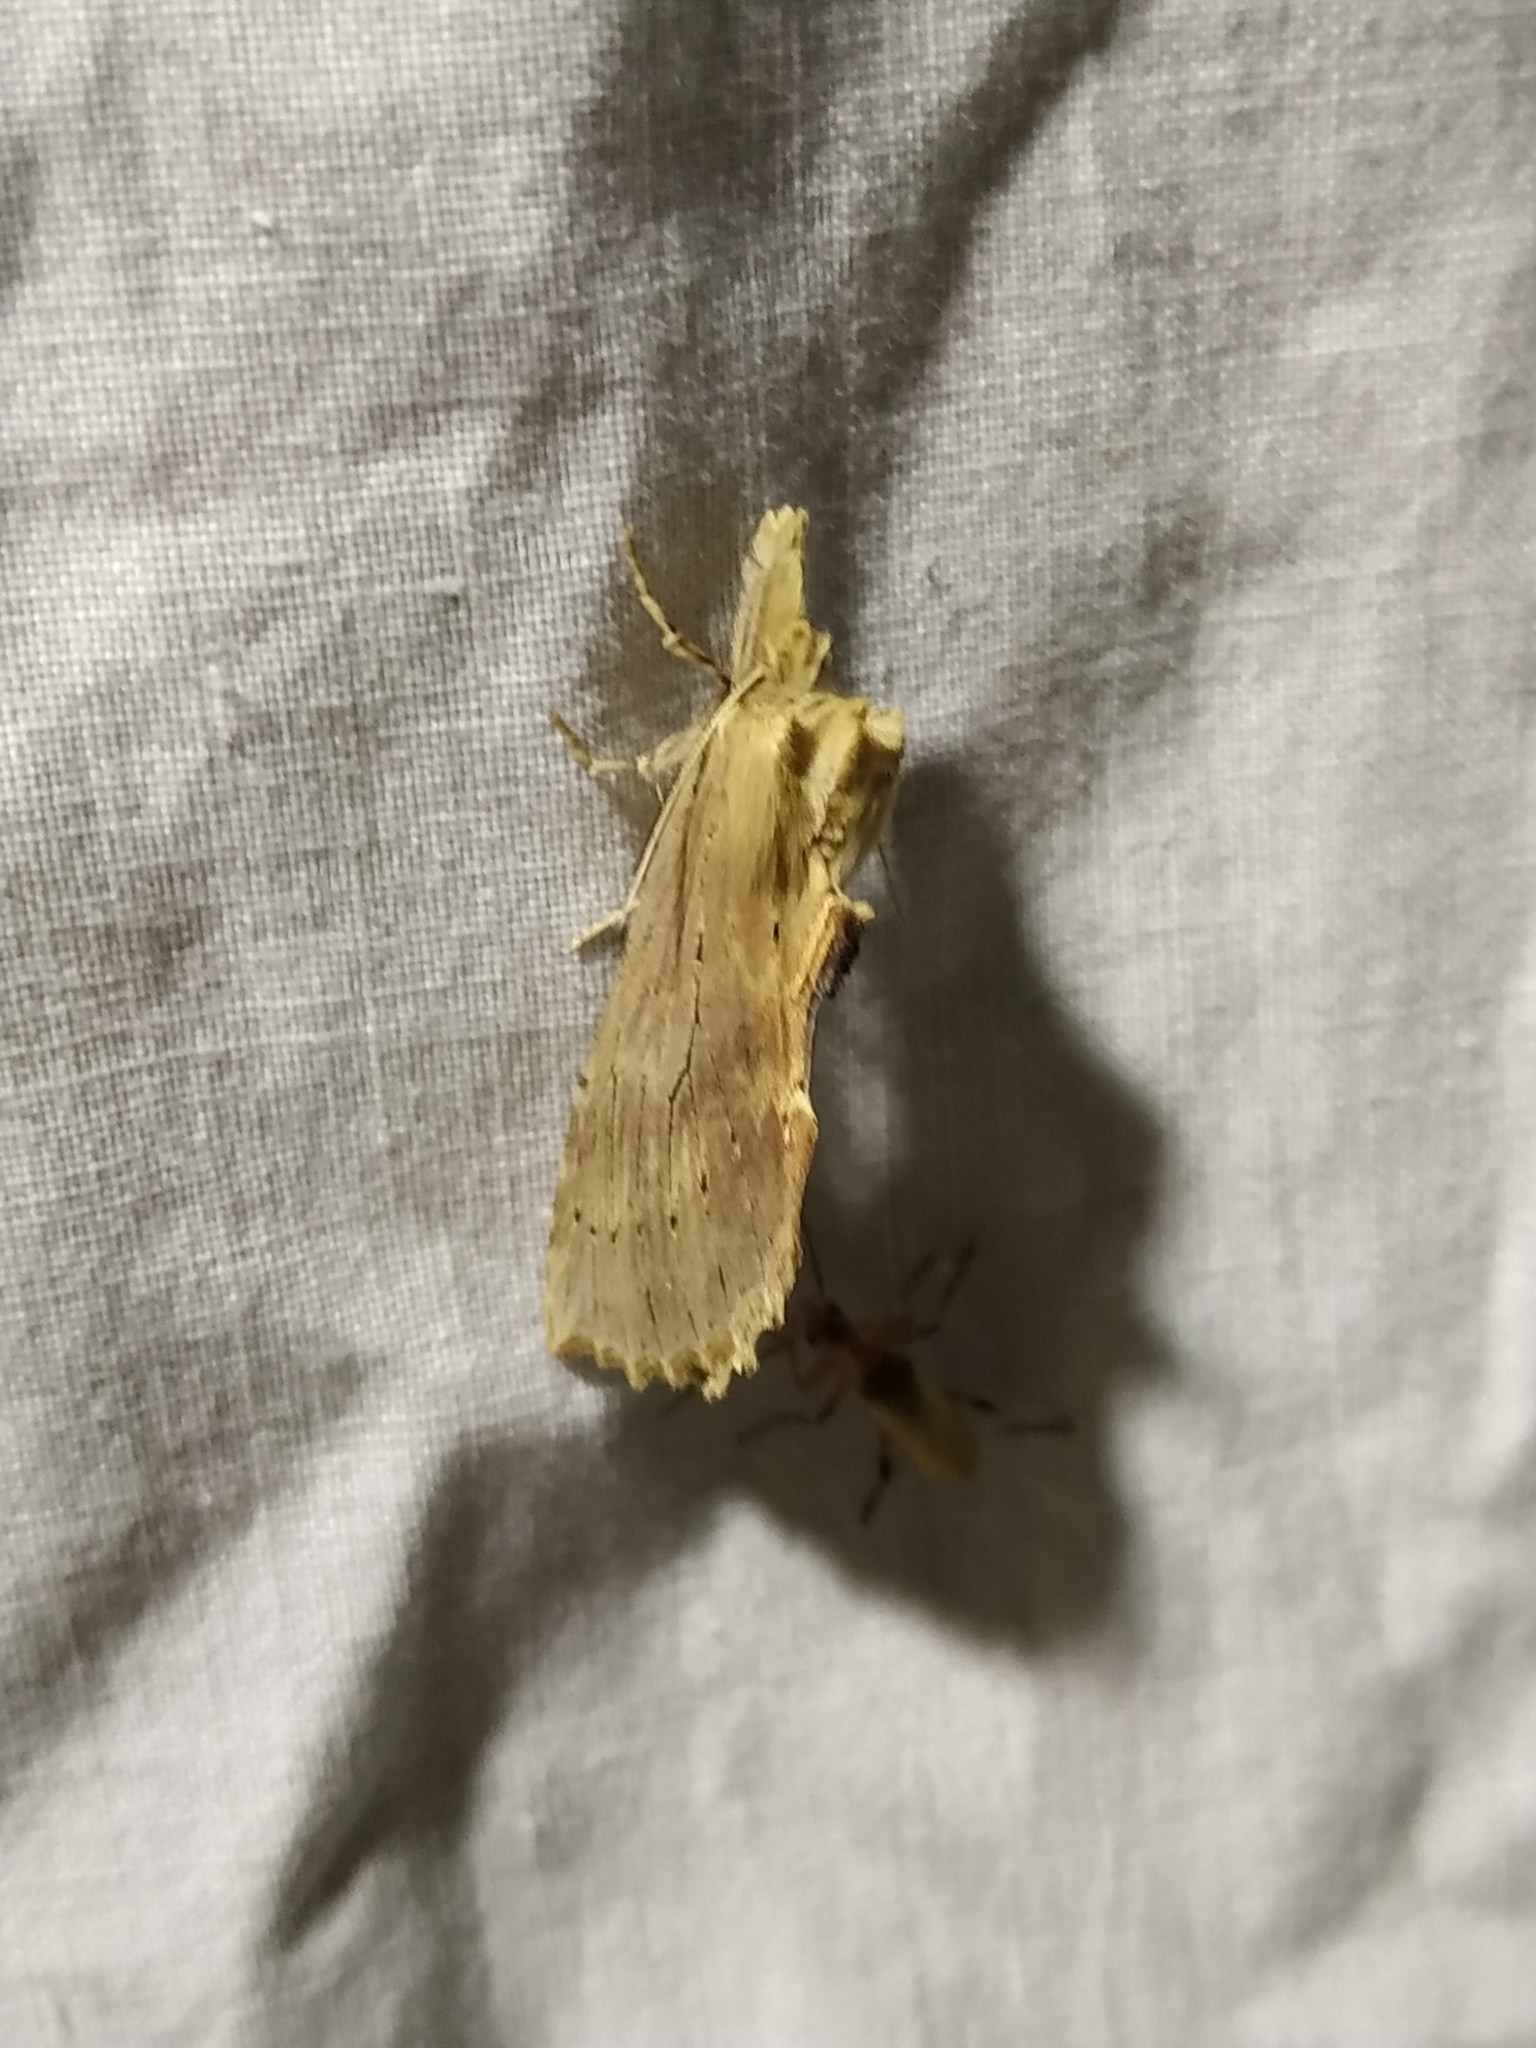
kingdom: Animalia
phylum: Arthropoda
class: Insecta
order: Lepidoptera
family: Notodontidae
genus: Pterostoma
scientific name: Pterostoma palpina
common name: Pale prominent
